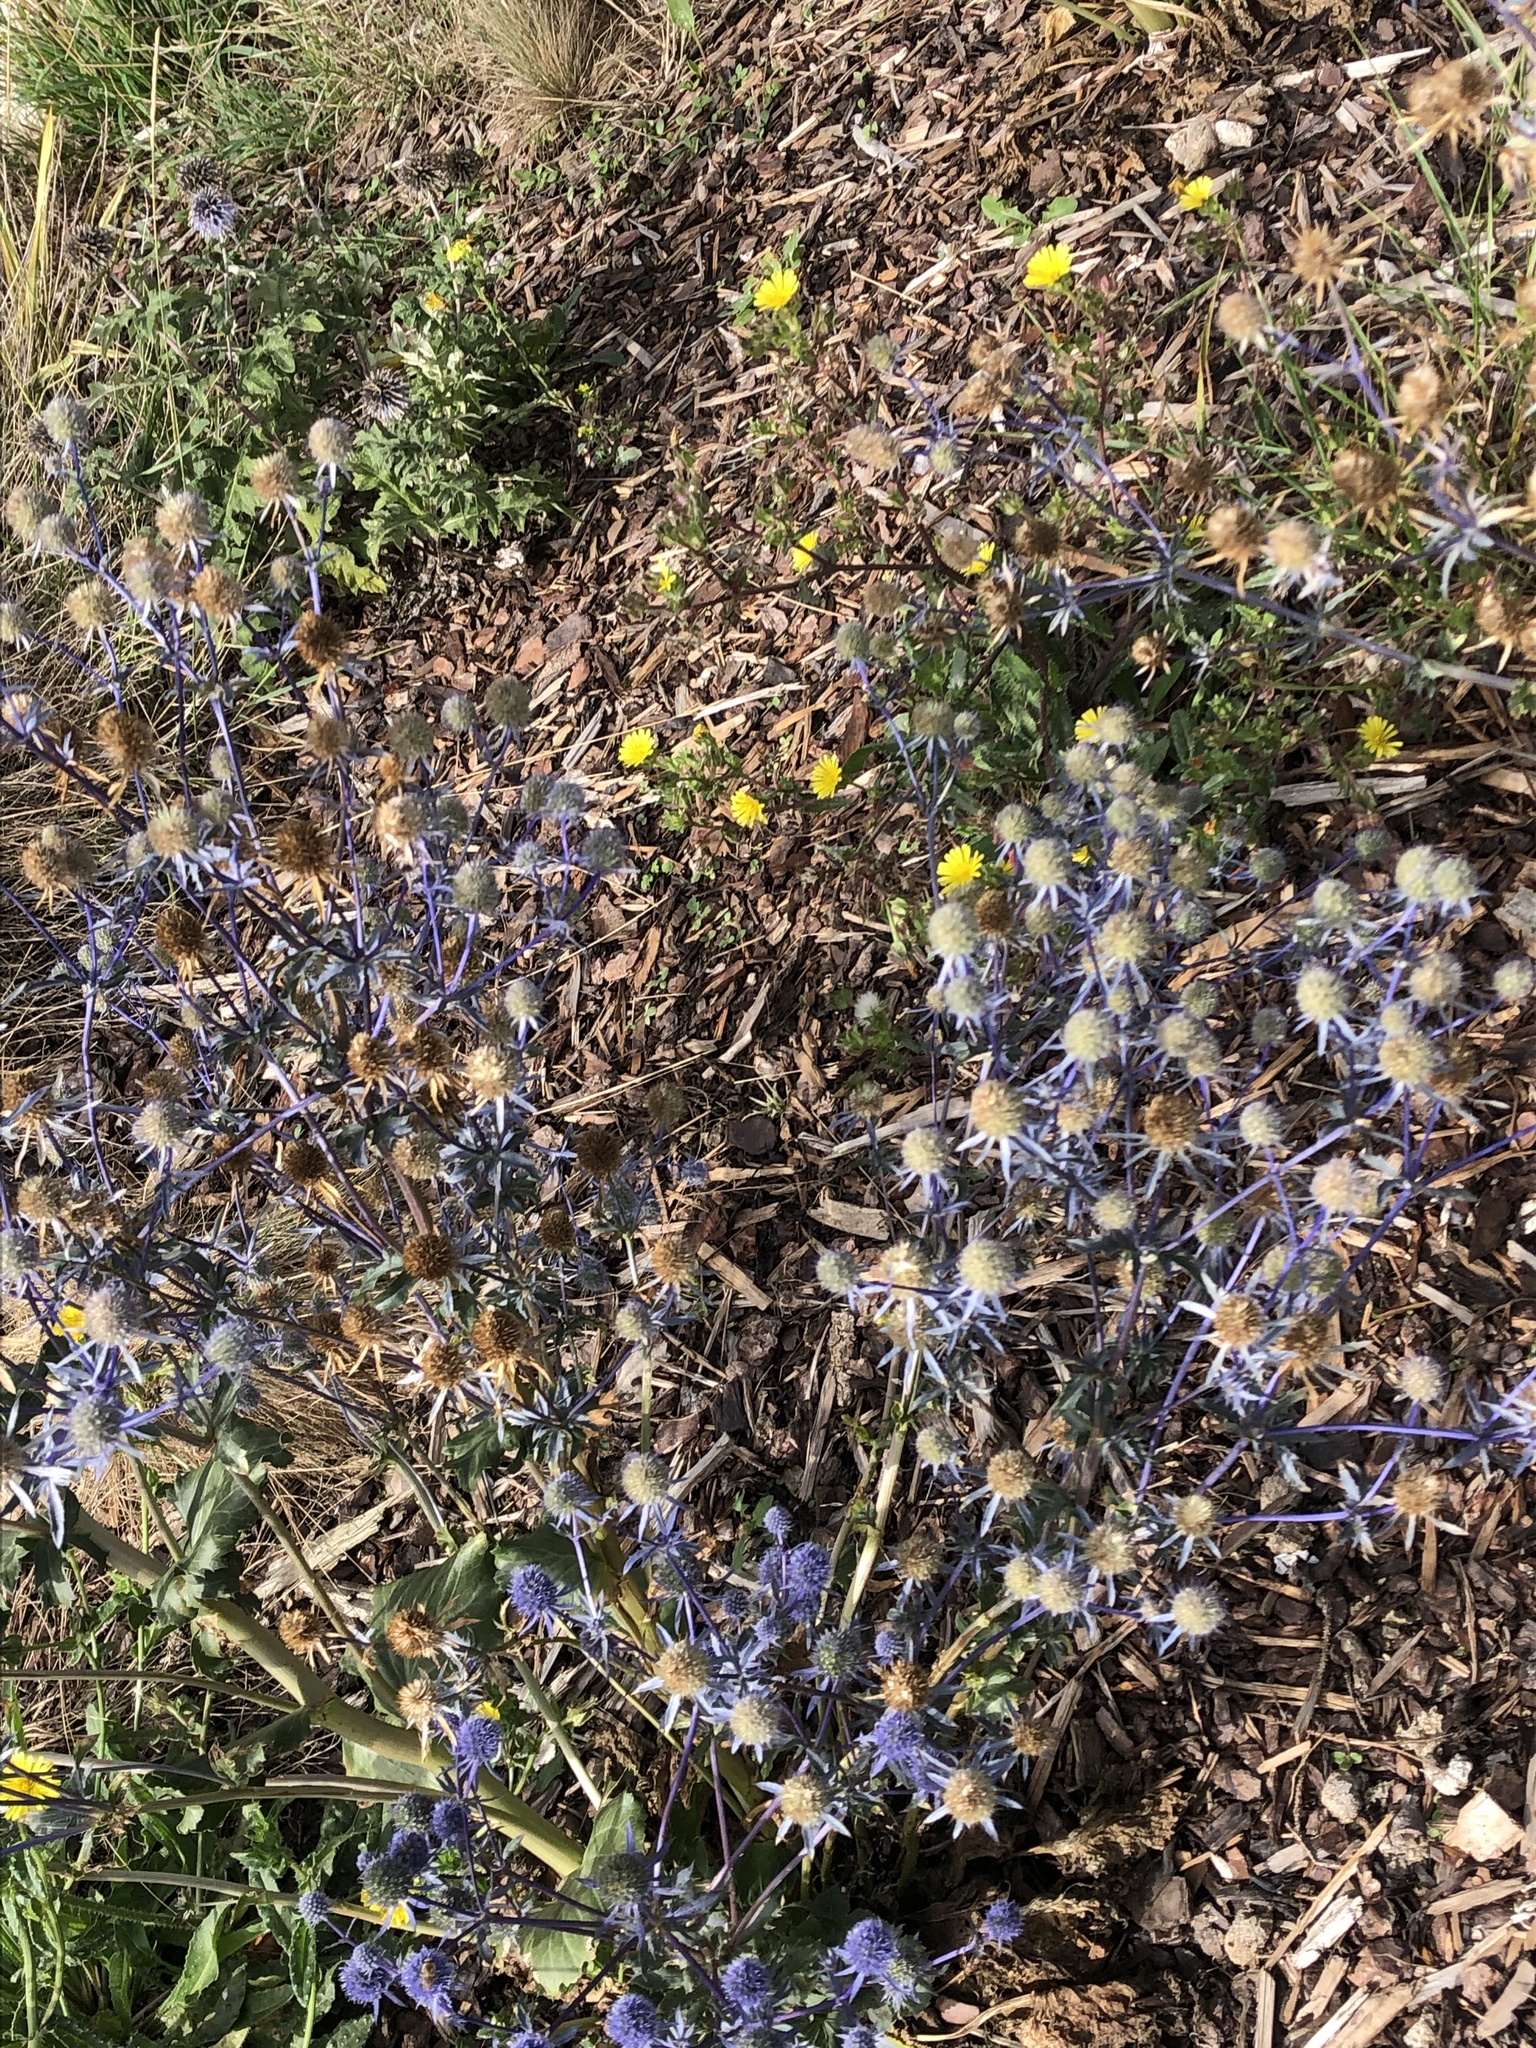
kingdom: Plantae
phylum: Tracheophyta
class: Magnoliopsida
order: Apiales
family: Apiaceae
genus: Eryngium
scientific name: Eryngium planum
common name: Blue eryngo
